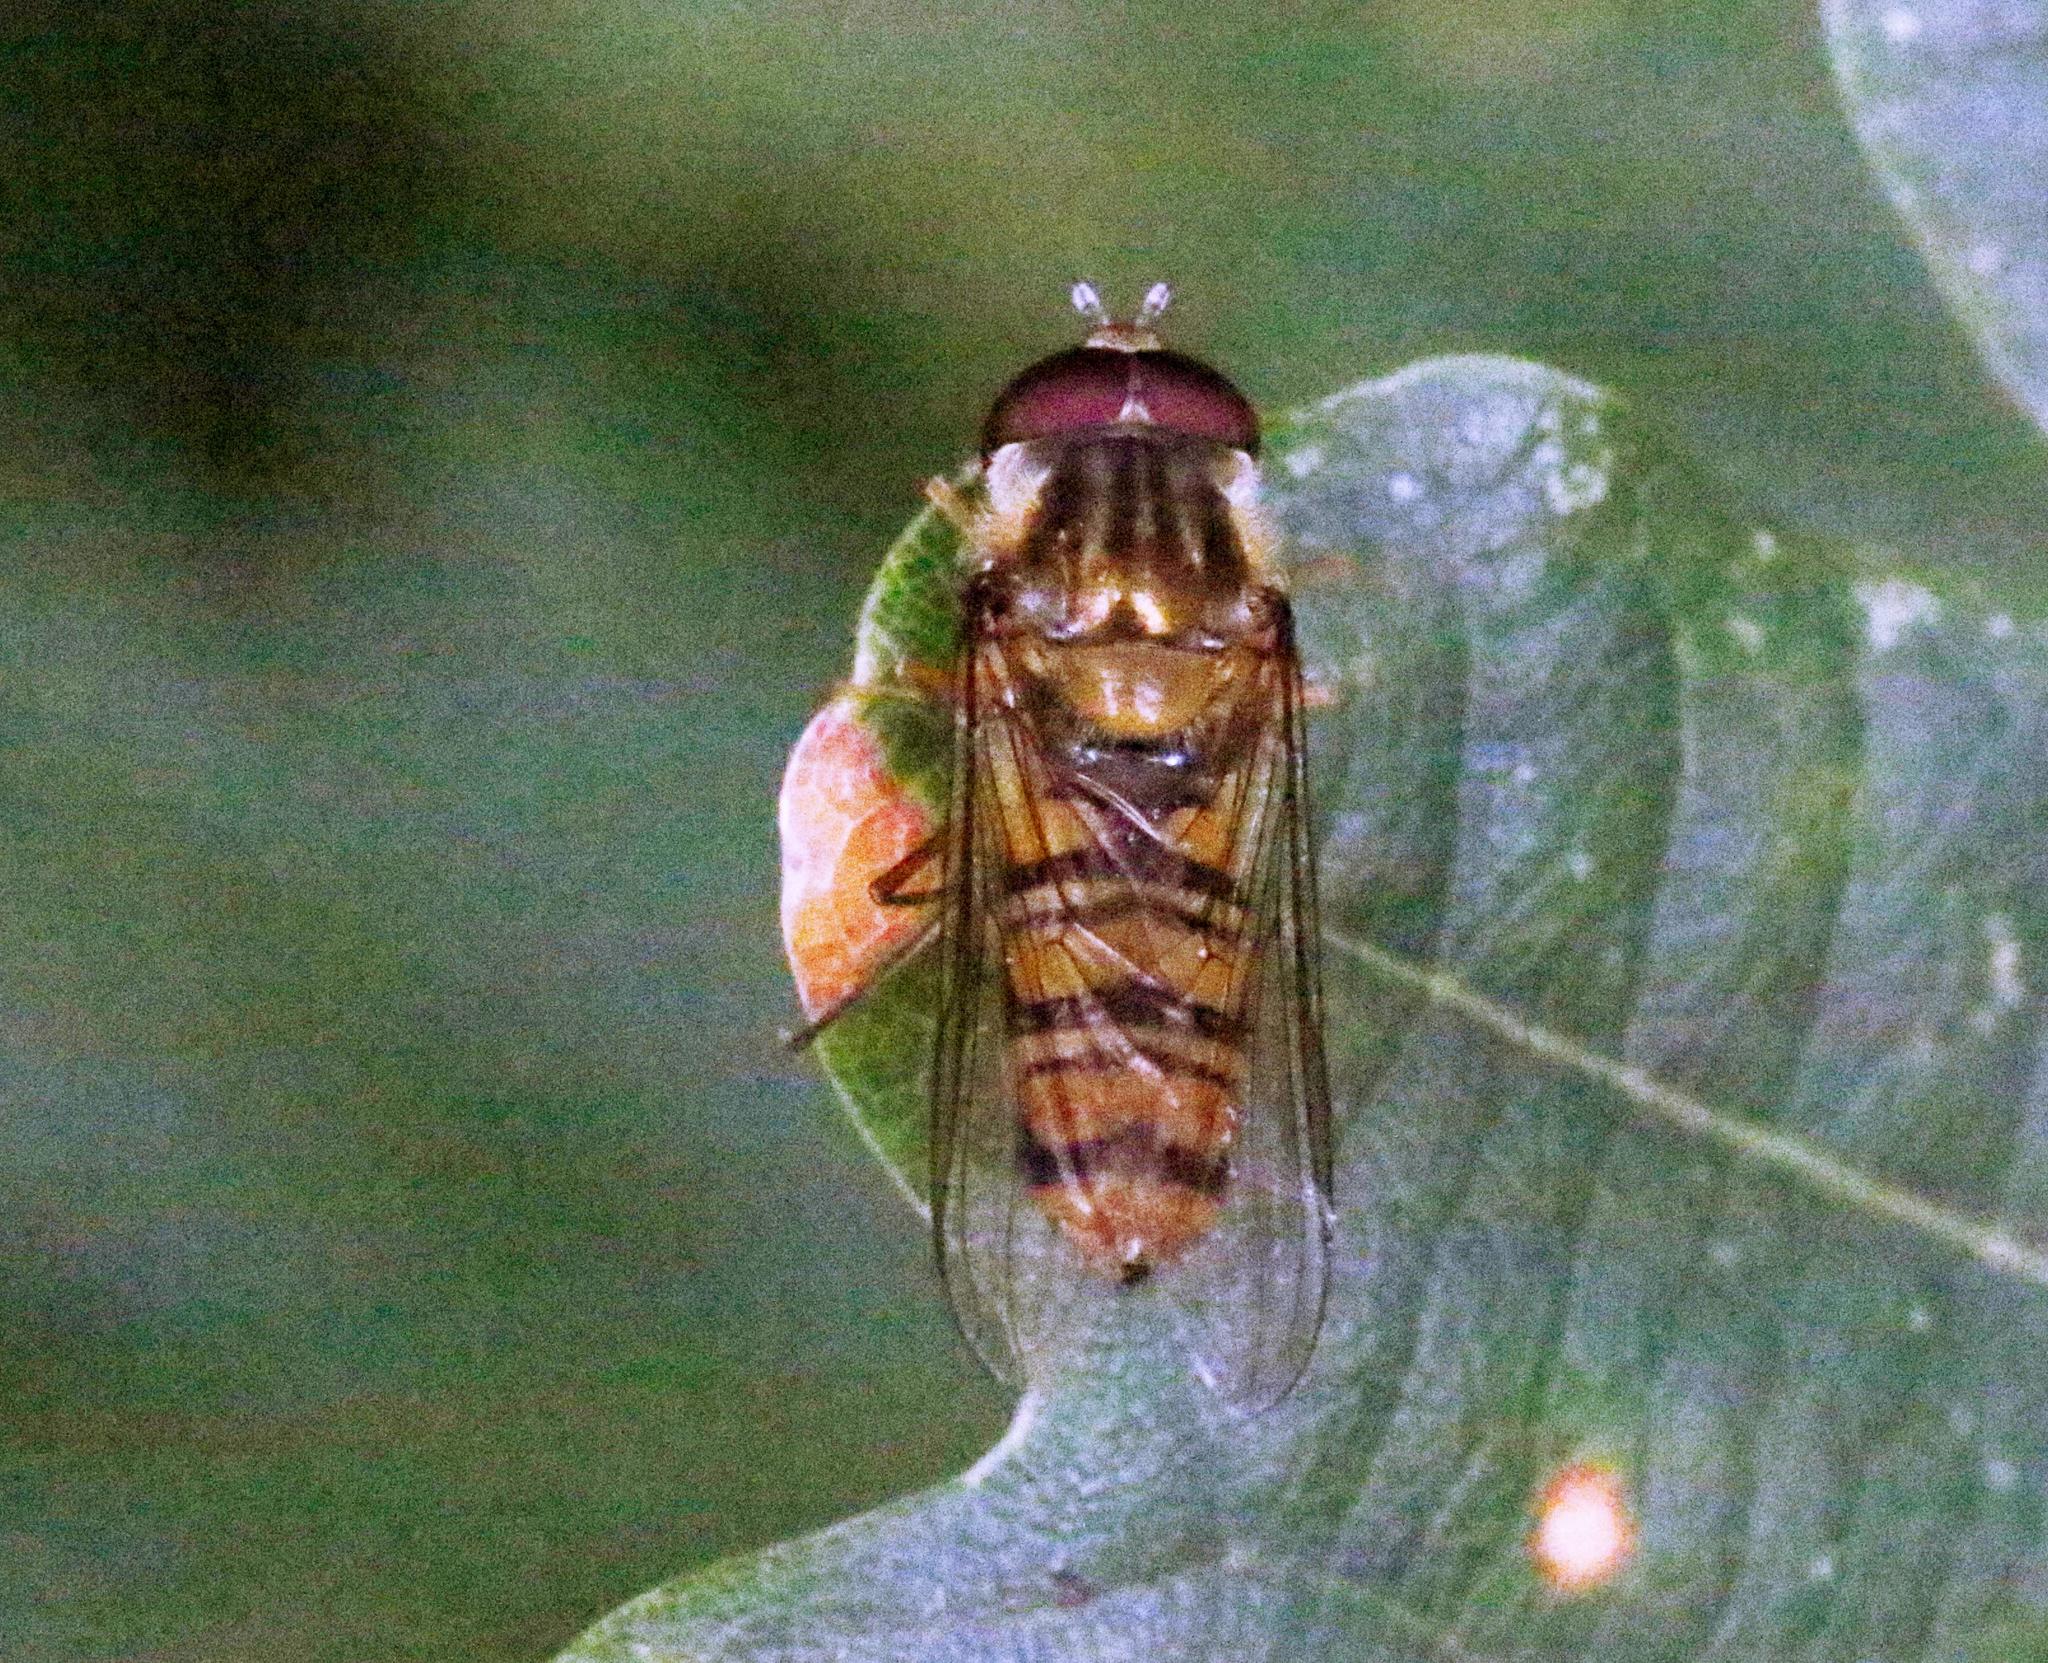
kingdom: Animalia
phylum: Arthropoda
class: Insecta
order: Diptera
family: Syrphidae
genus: Episyrphus
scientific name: Episyrphus balteatus
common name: Marmalade hoverfly
